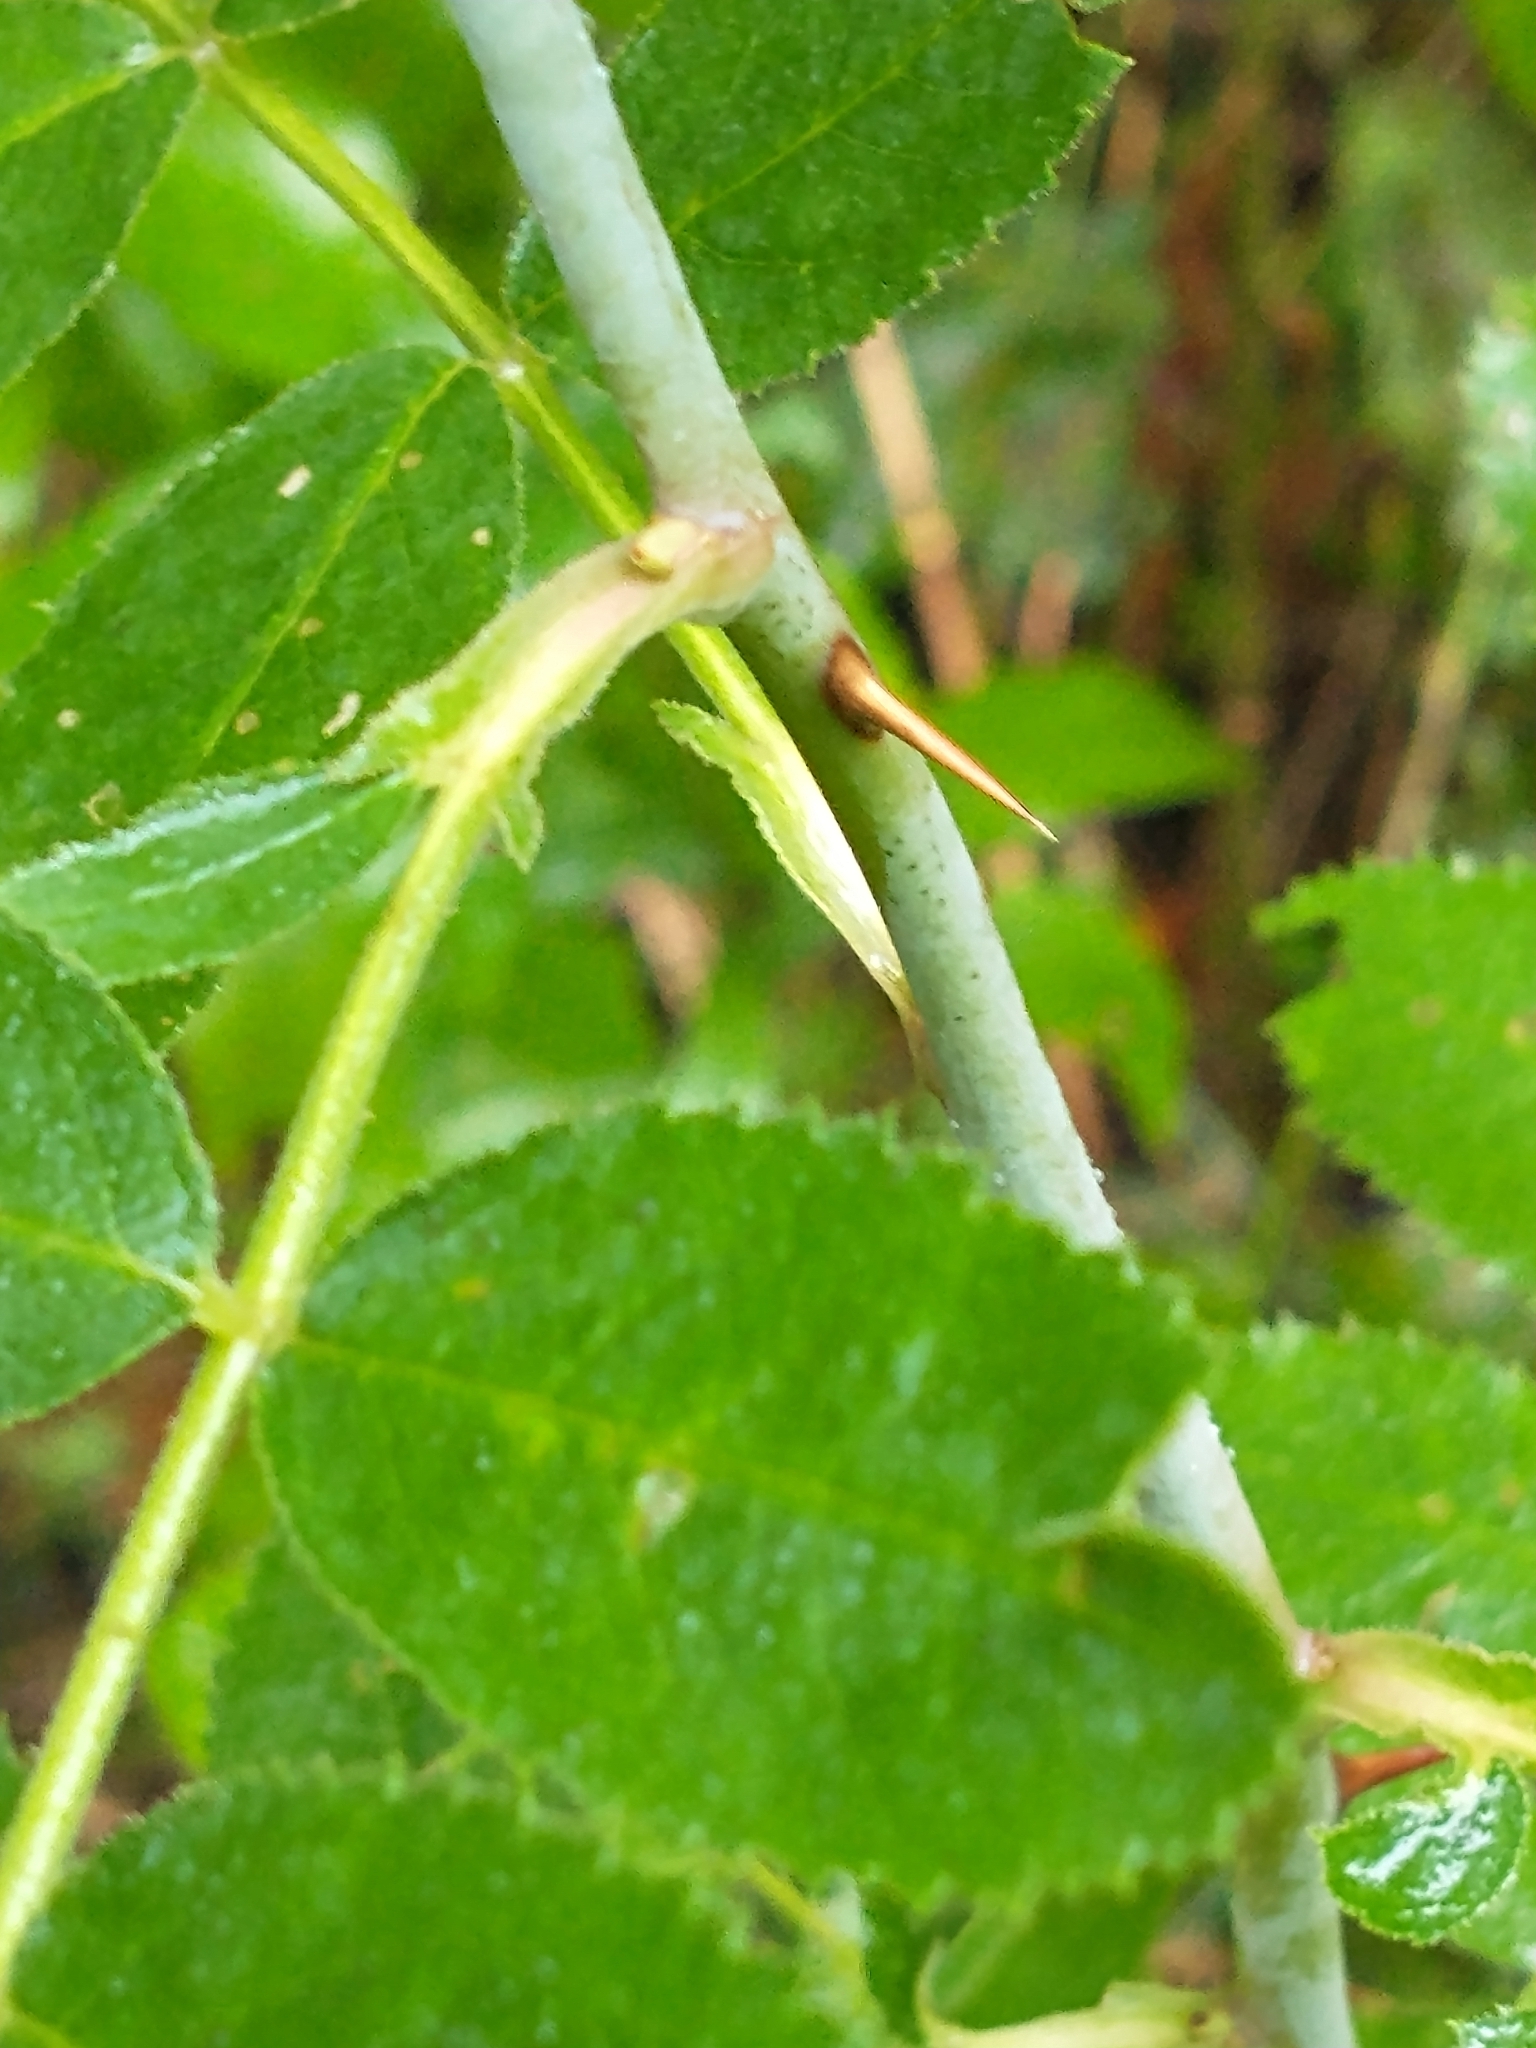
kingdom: Plantae
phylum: Tracheophyta
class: Magnoliopsida
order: Rosales
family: Rosaceae
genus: Rosa
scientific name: Rosa sherardii
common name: Sherard's downy rose
